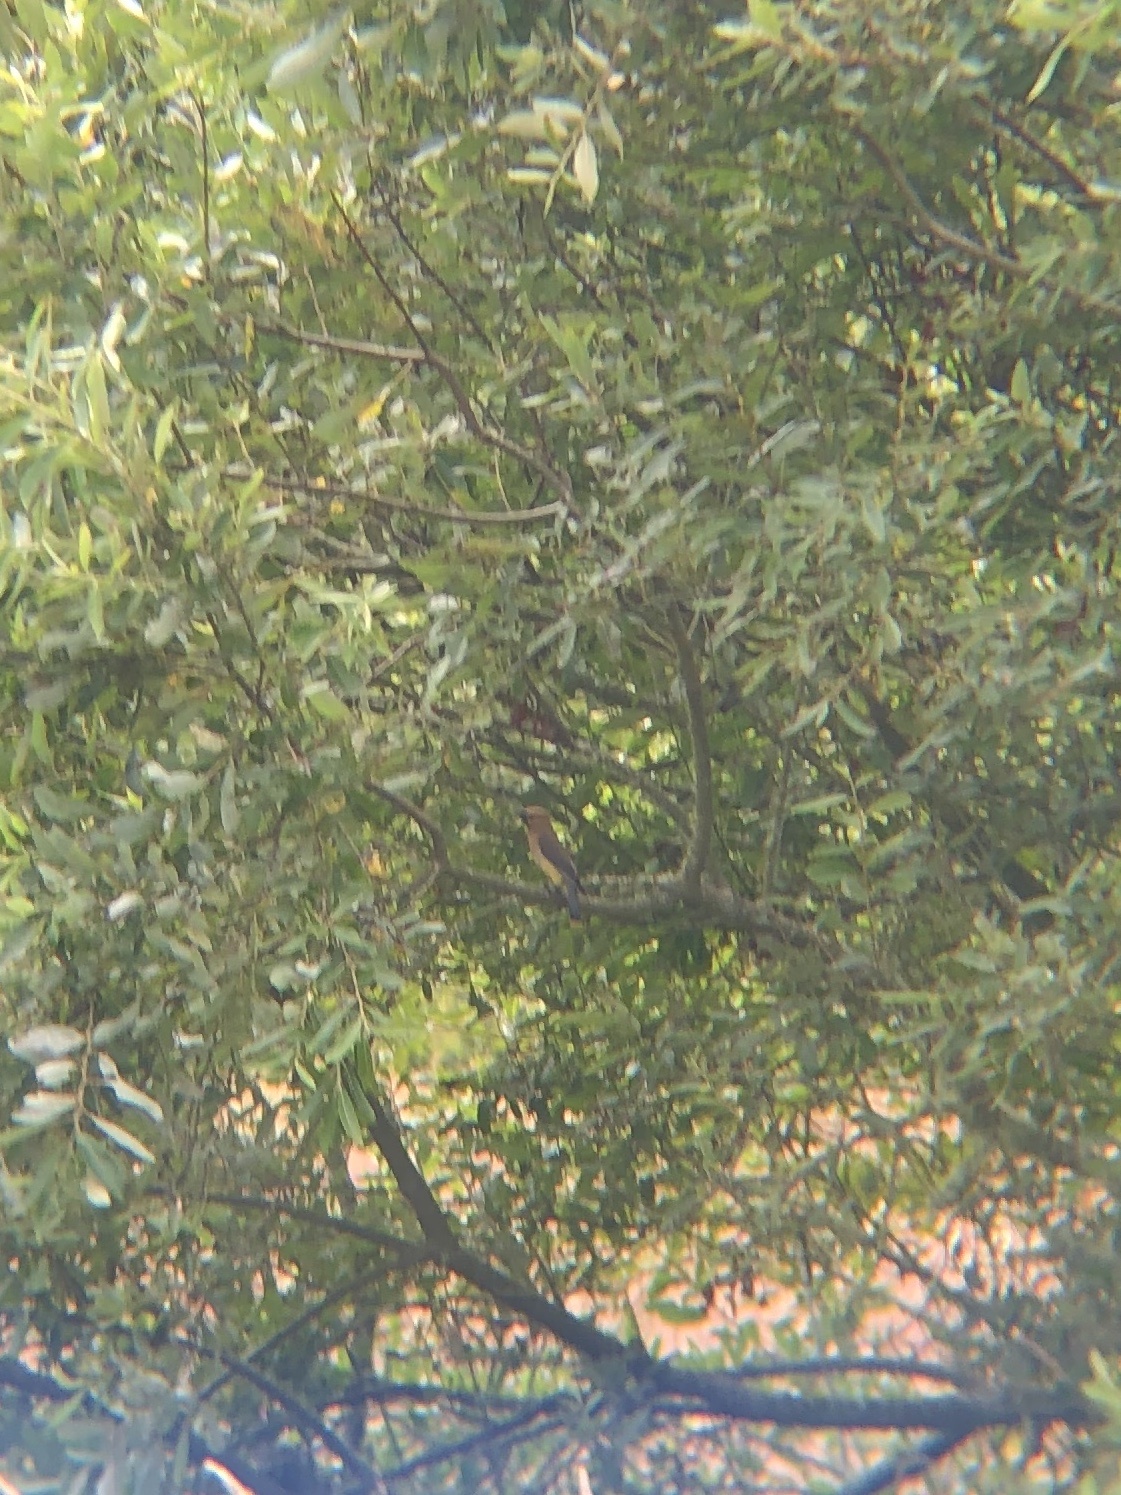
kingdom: Animalia
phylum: Chordata
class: Aves
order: Passeriformes
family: Bombycillidae
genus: Bombycilla
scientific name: Bombycilla cedrorum
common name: Cedar waxwing
